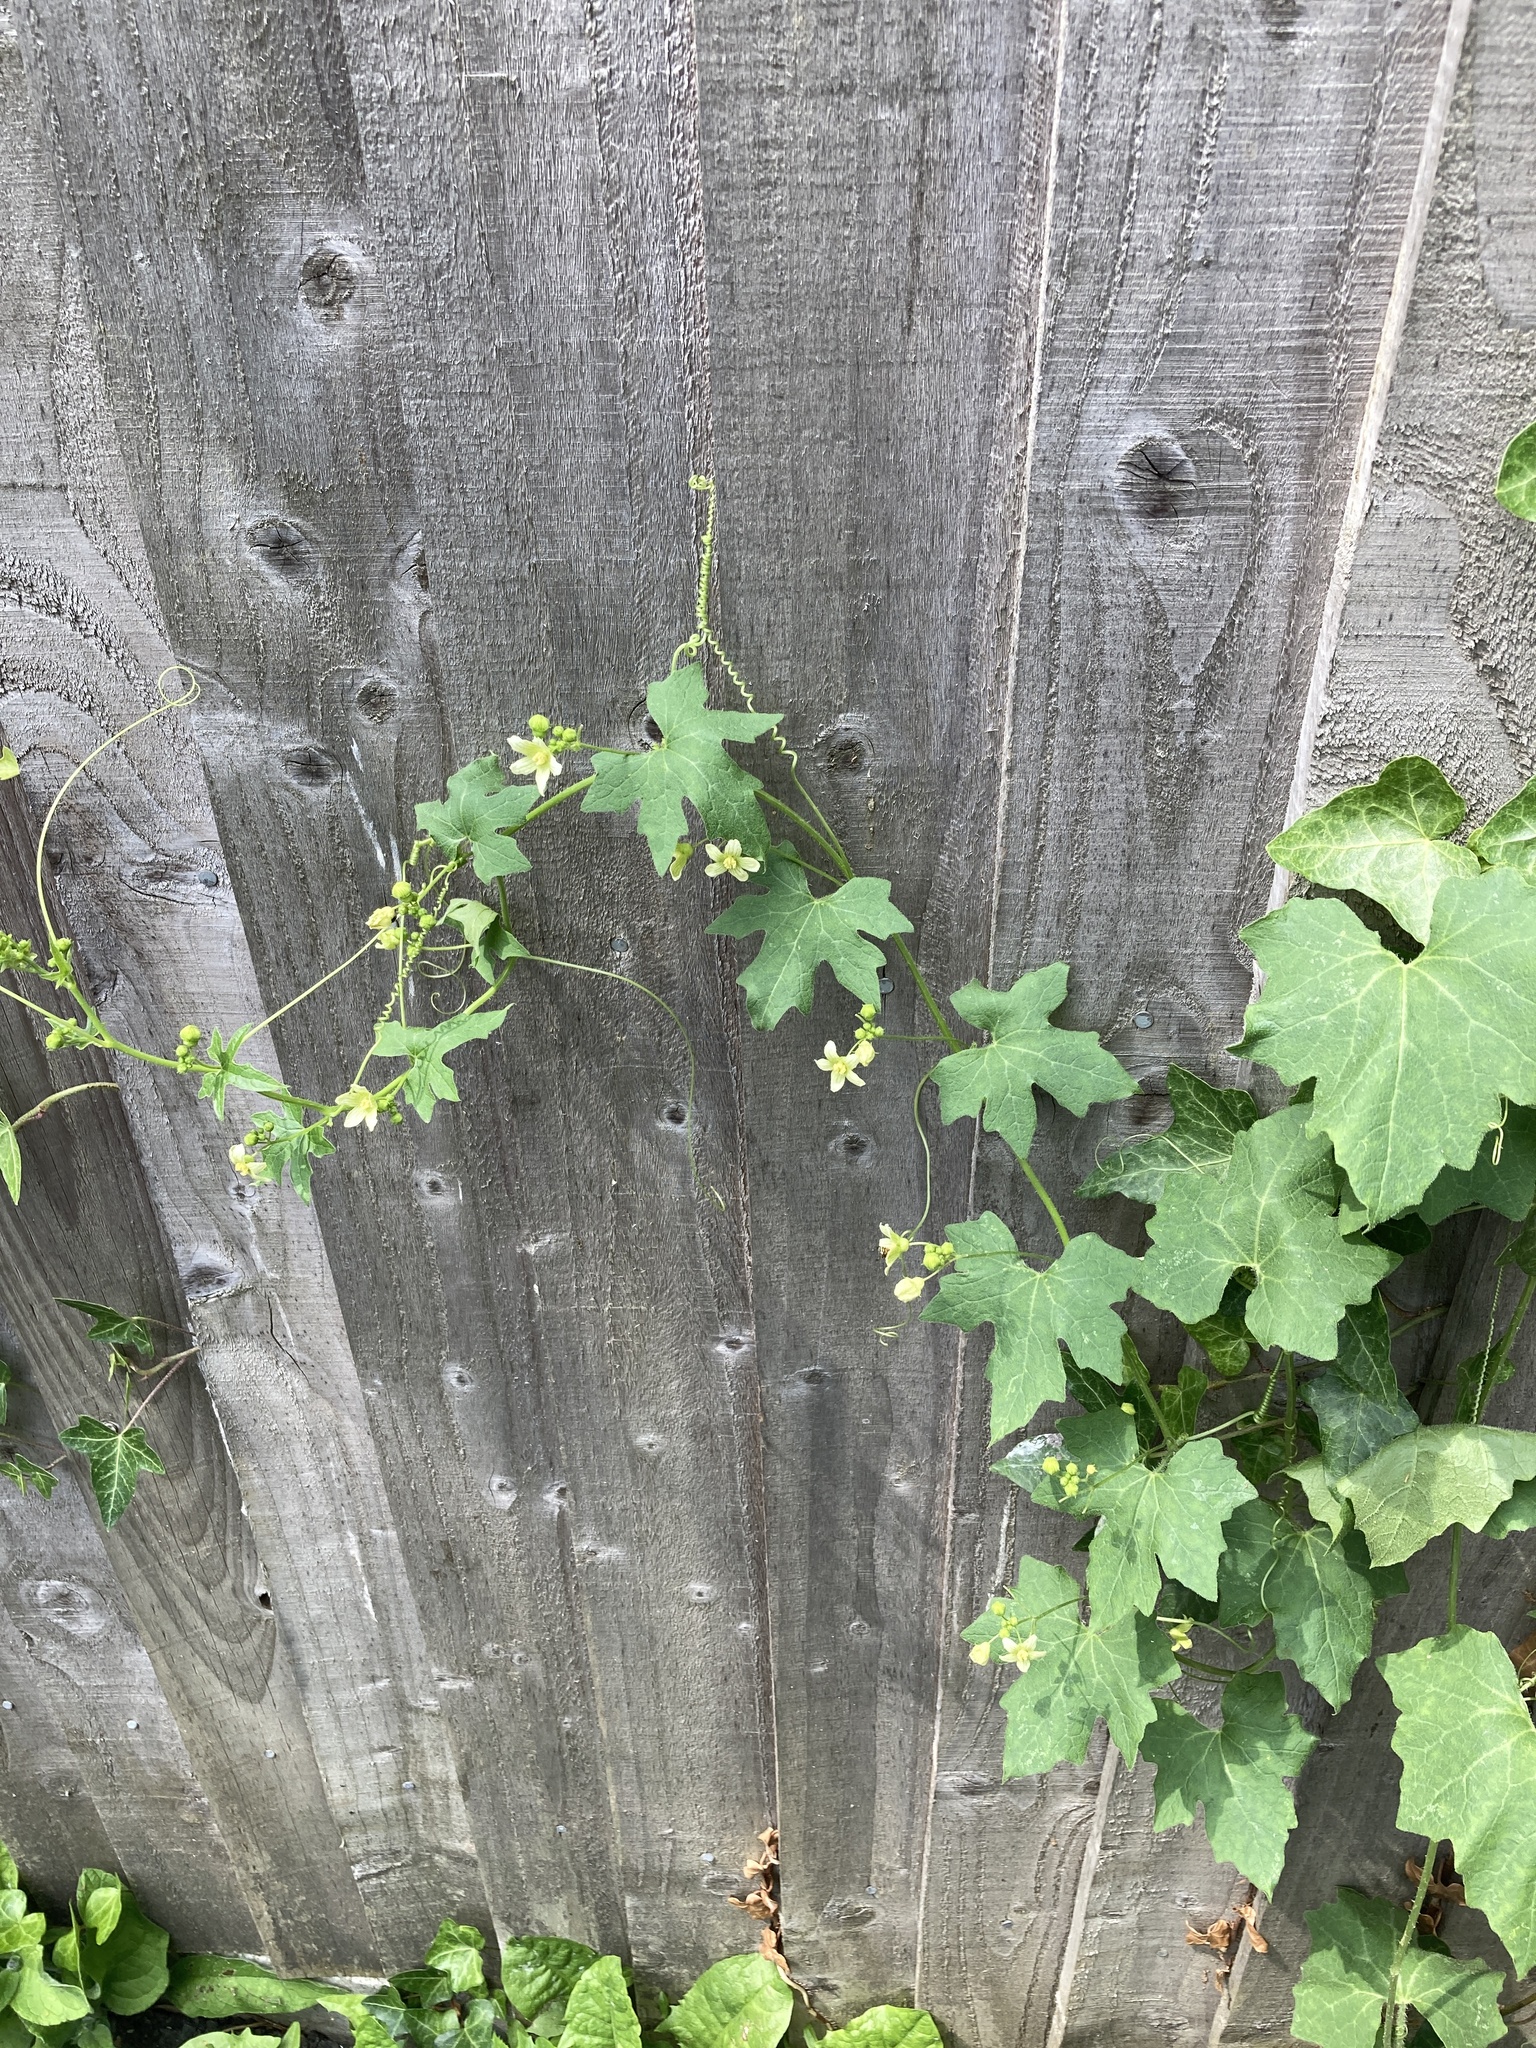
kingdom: Plantae
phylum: Tracheophyta
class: Magnoliopsida
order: Cucurbitales
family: Cucurbitaceae
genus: Bryonia
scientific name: Bryonia cretica
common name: Cretan bryony
